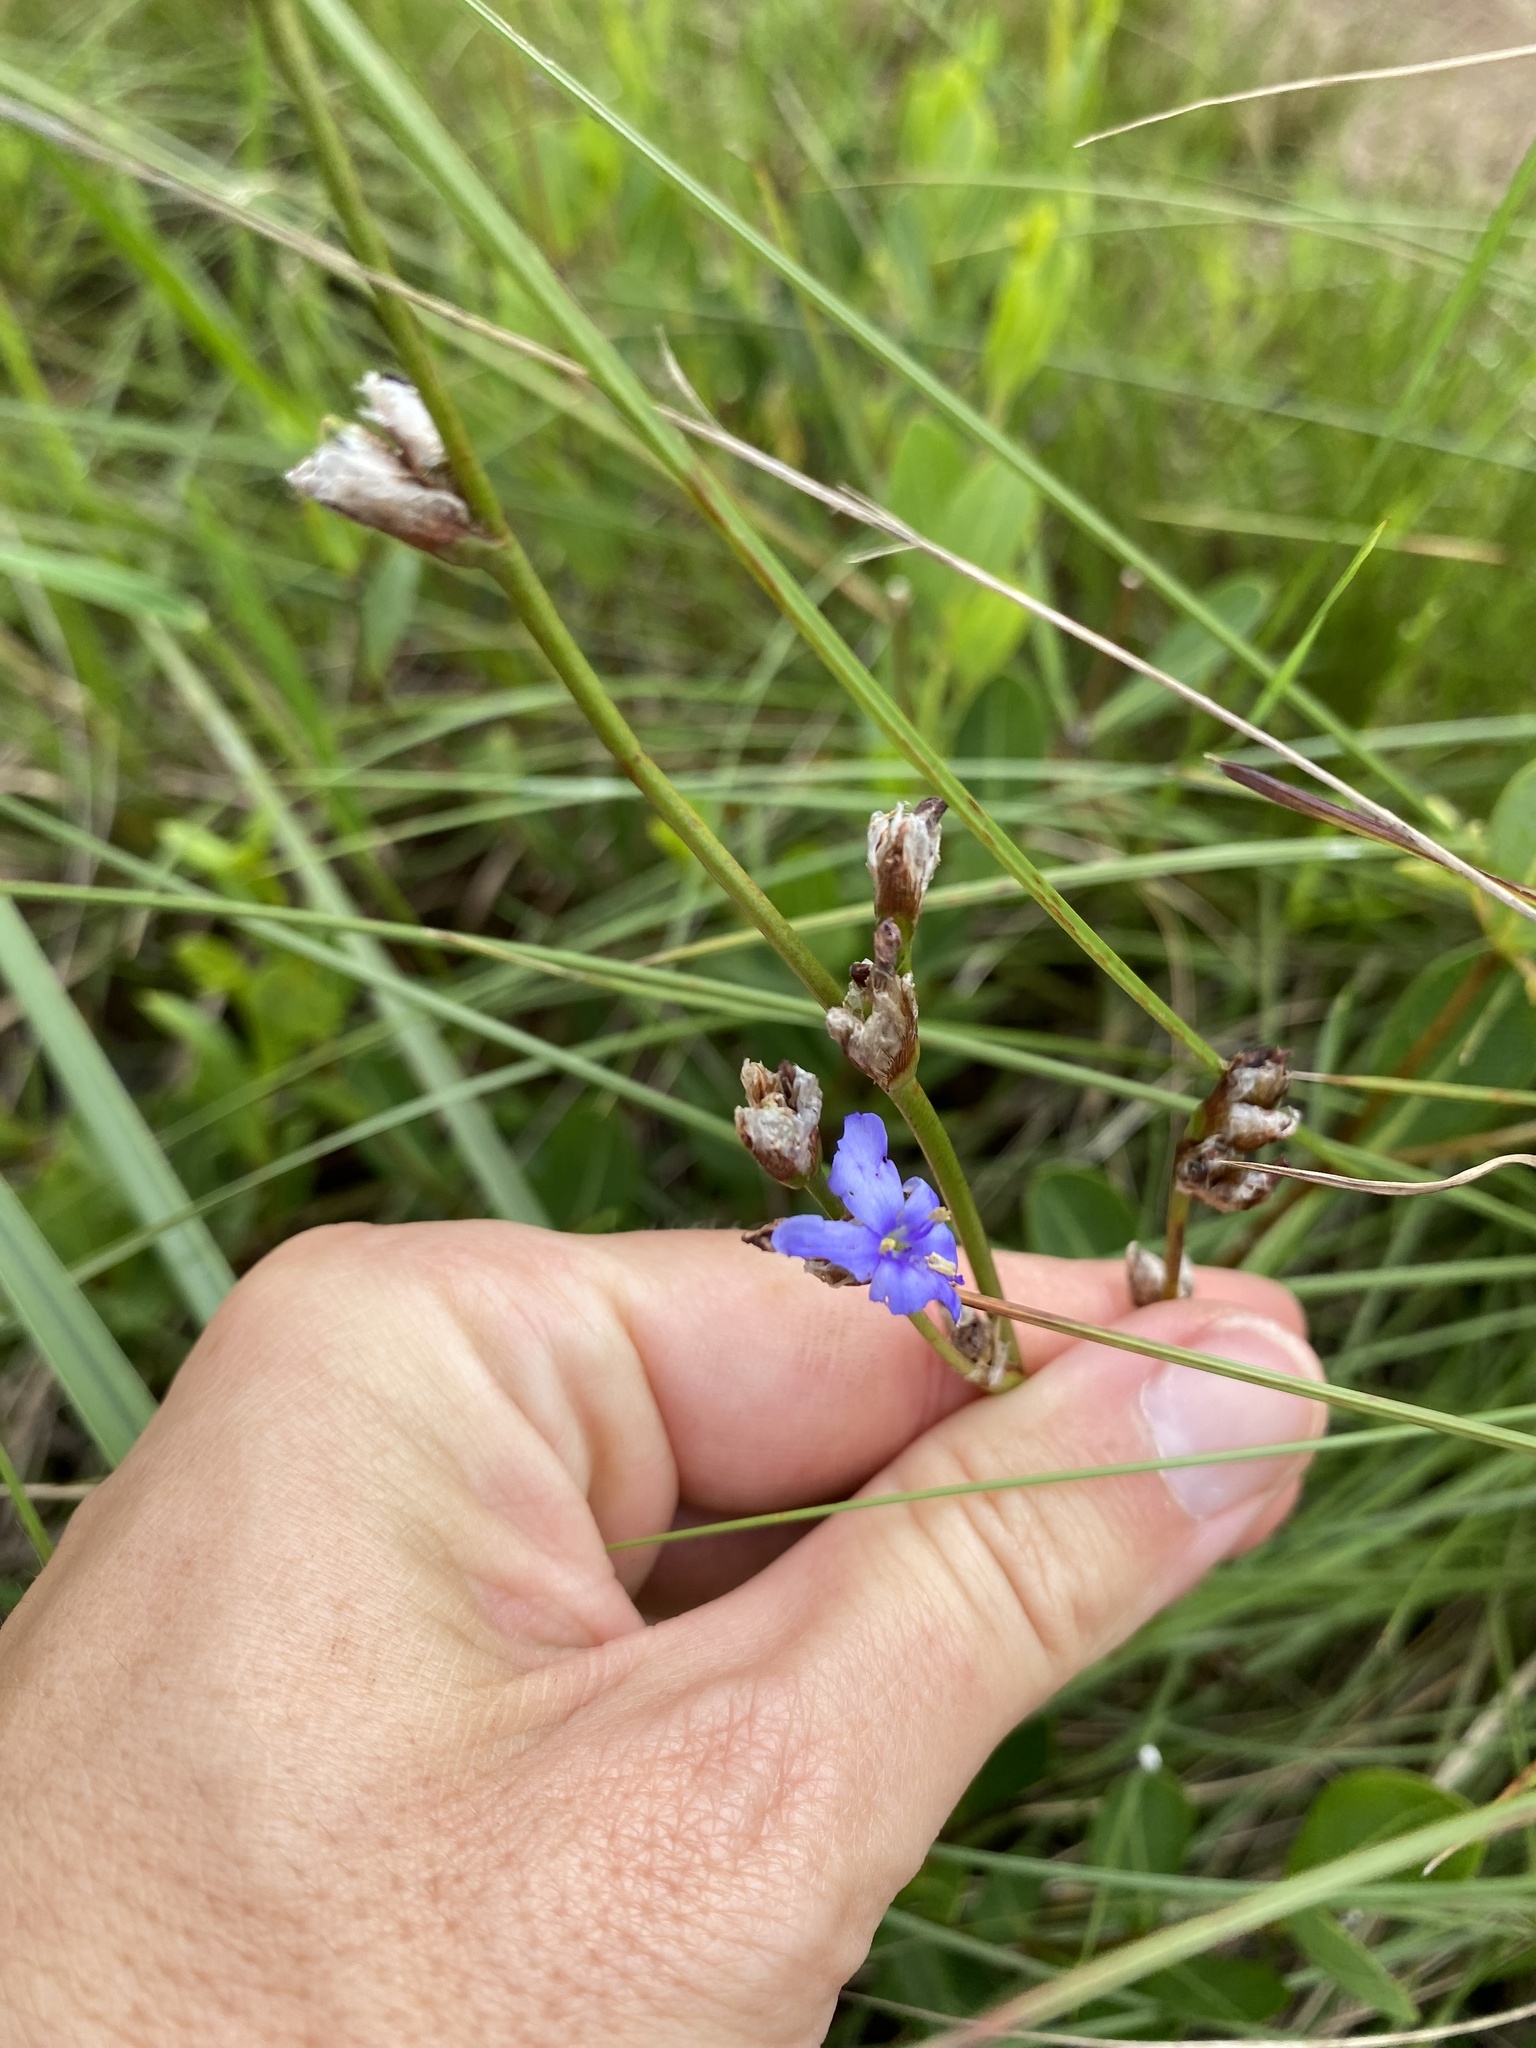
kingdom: Plantae
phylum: Tracheophyta
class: Liliopsida
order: Asparagales
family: Iridaceae
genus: Aristea
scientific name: Aristea torulosa
